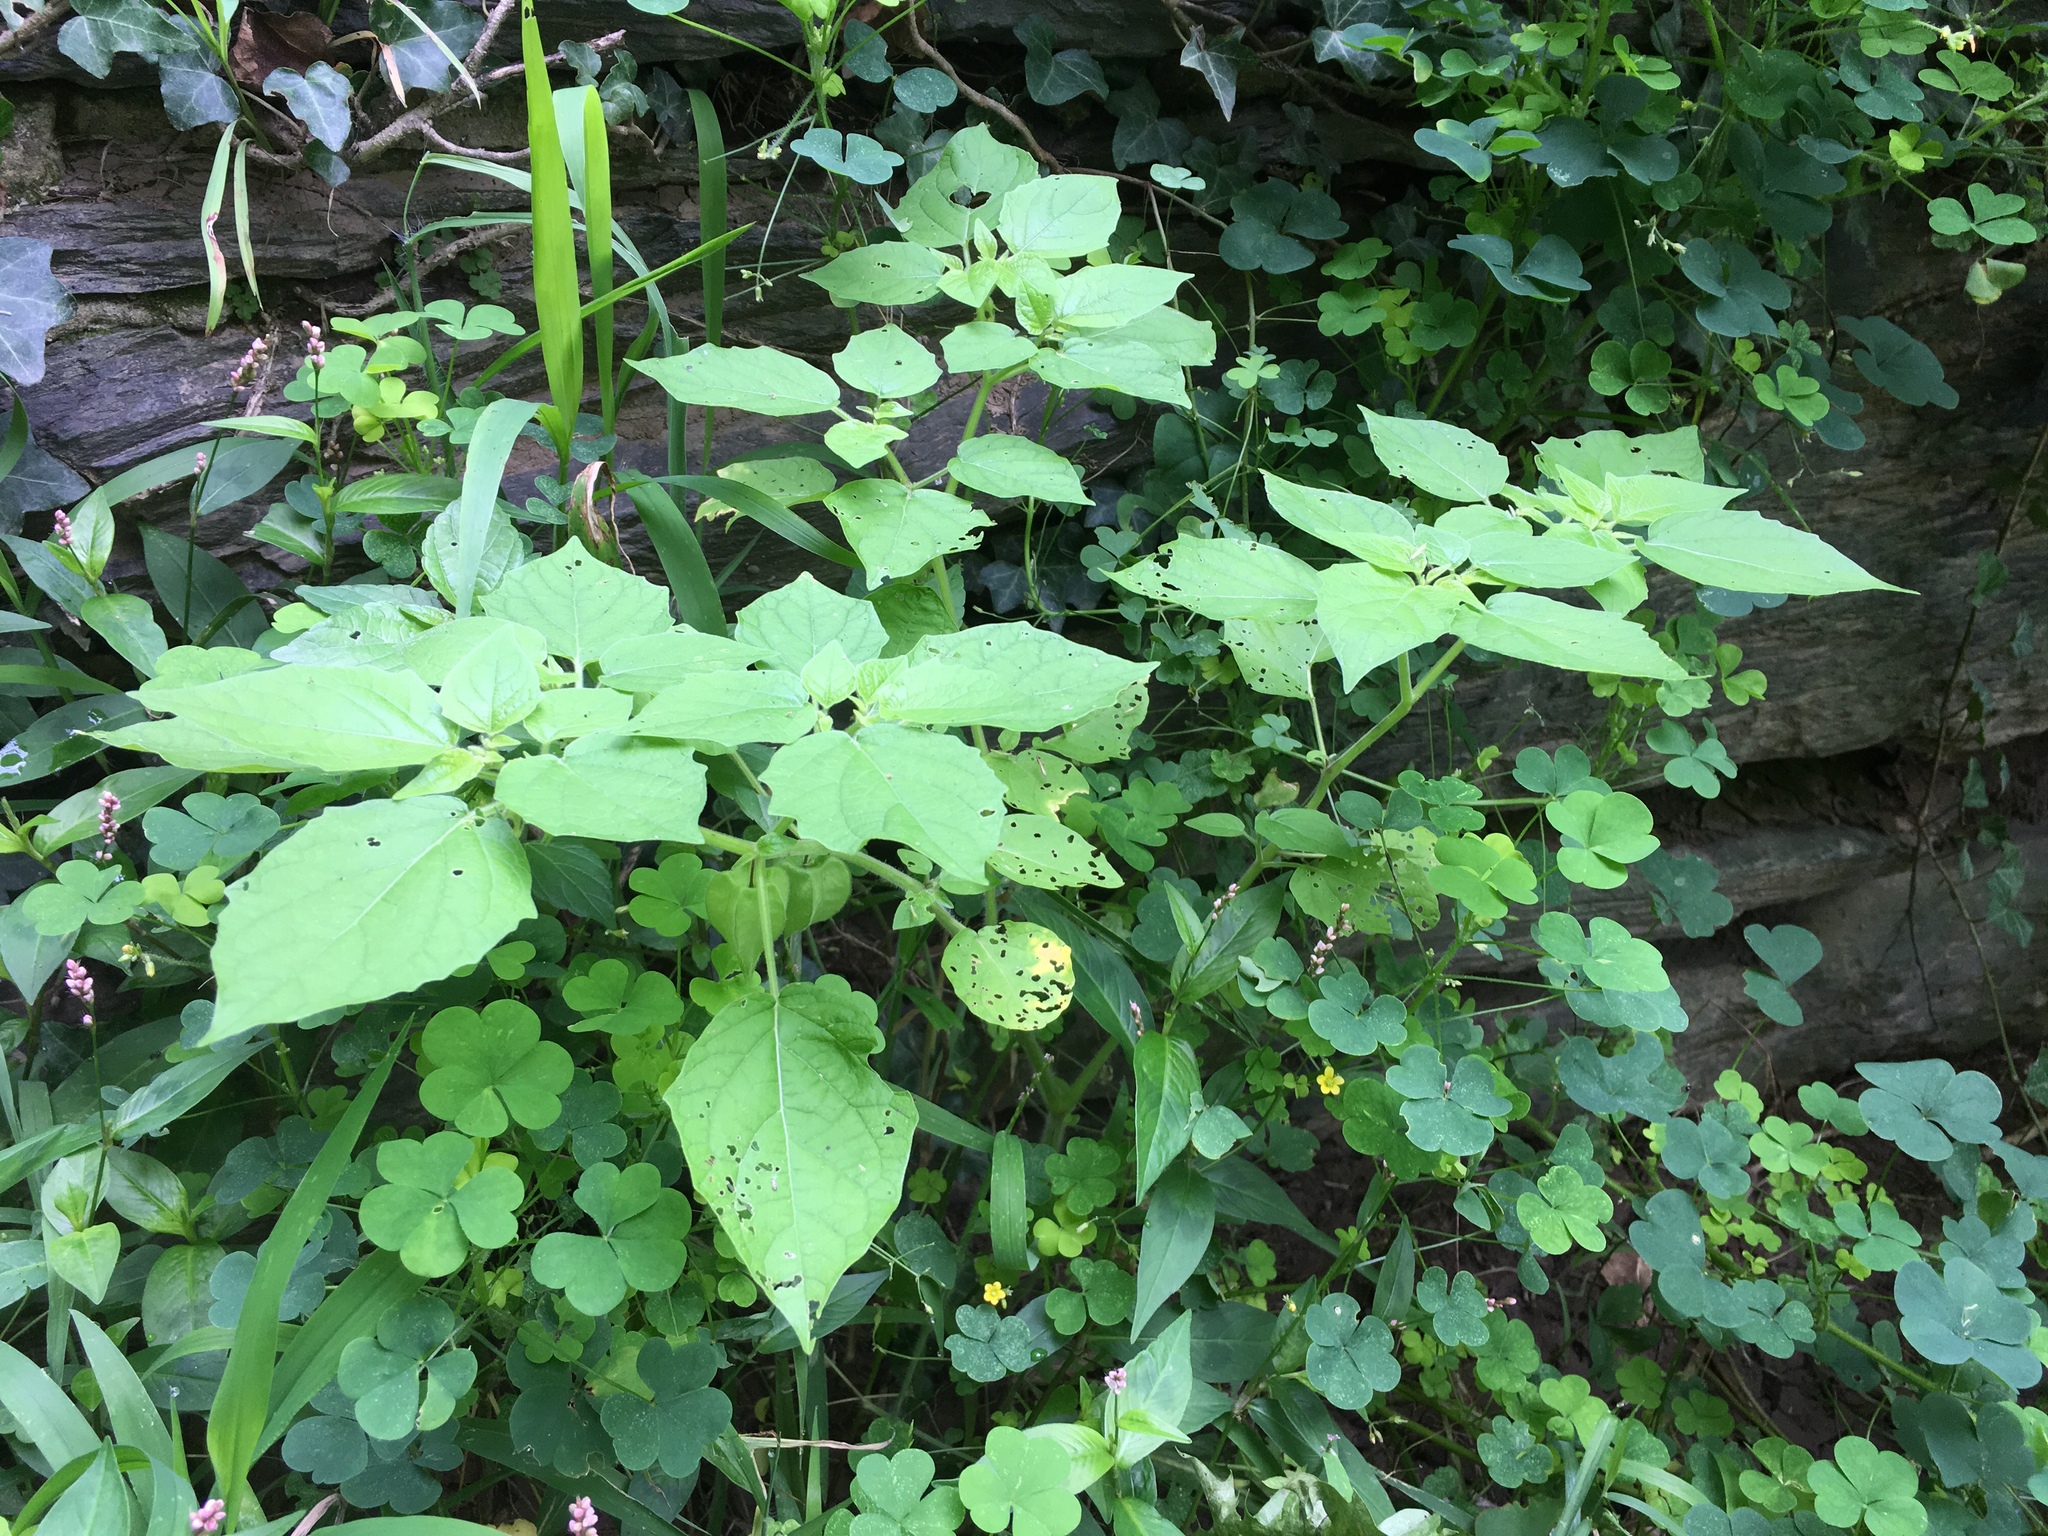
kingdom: Plantae
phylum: Tracheophyta
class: Magnoliopsida
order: Solanales
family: Solanaceae
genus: Physalis
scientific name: Physalis pubescens
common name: Downy ground-cherry
